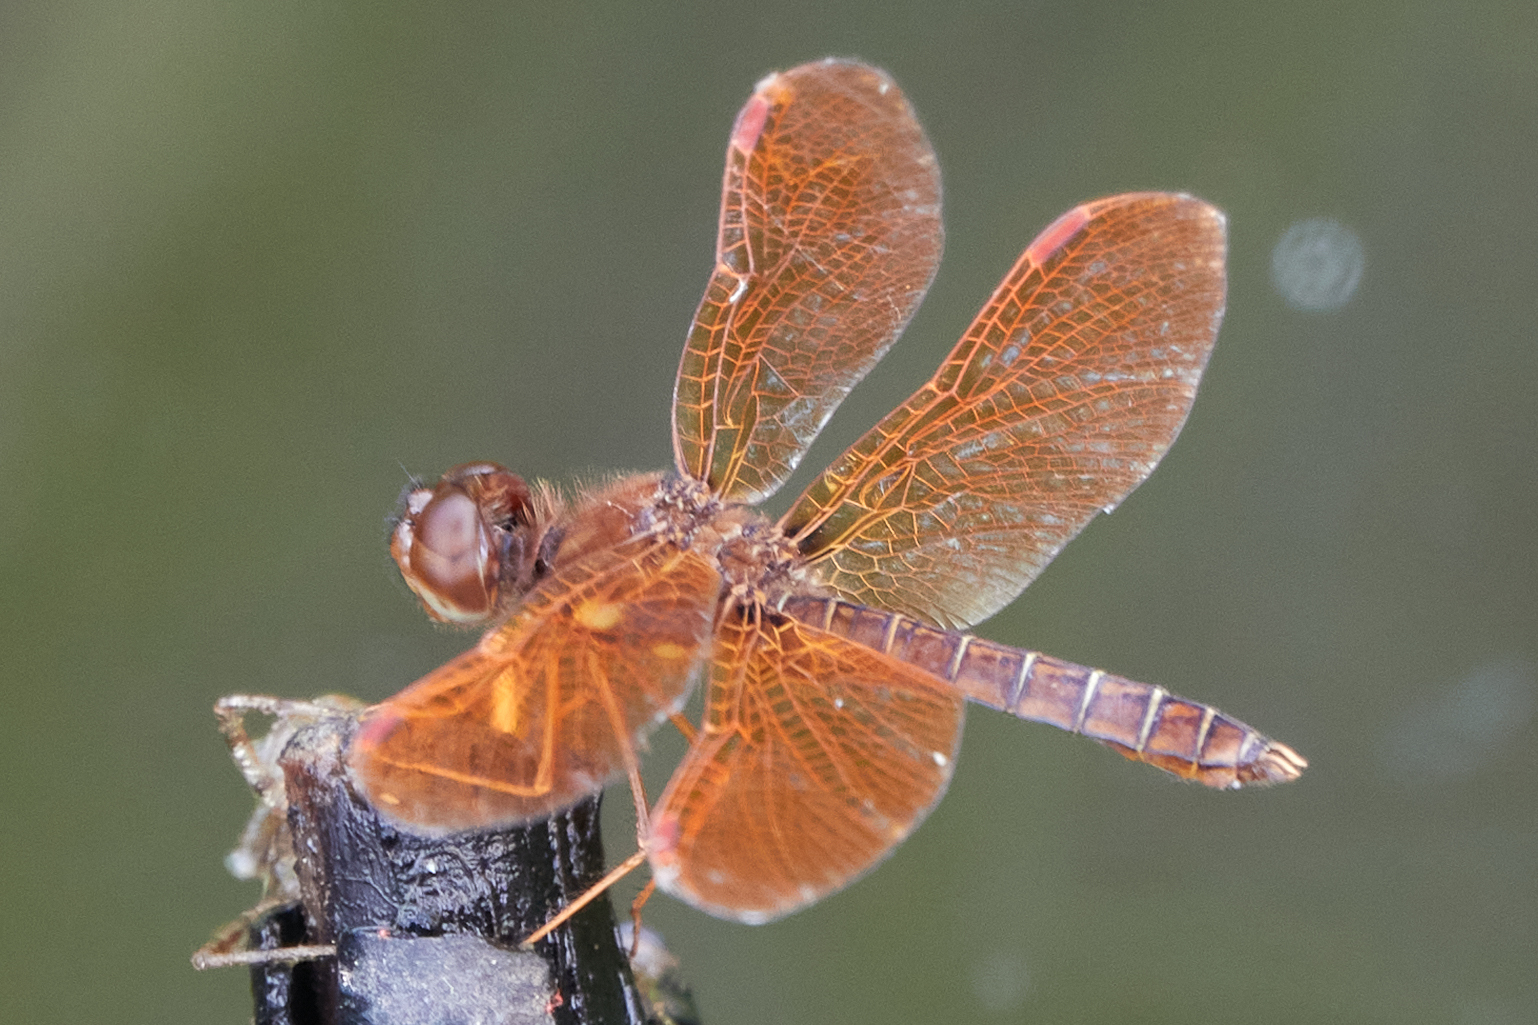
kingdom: Animalia
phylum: Arthropoda
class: Insecta
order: Odonata
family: Libellulidae
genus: Perithemis
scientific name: Perithemis tenera
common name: Eastern amberwing
